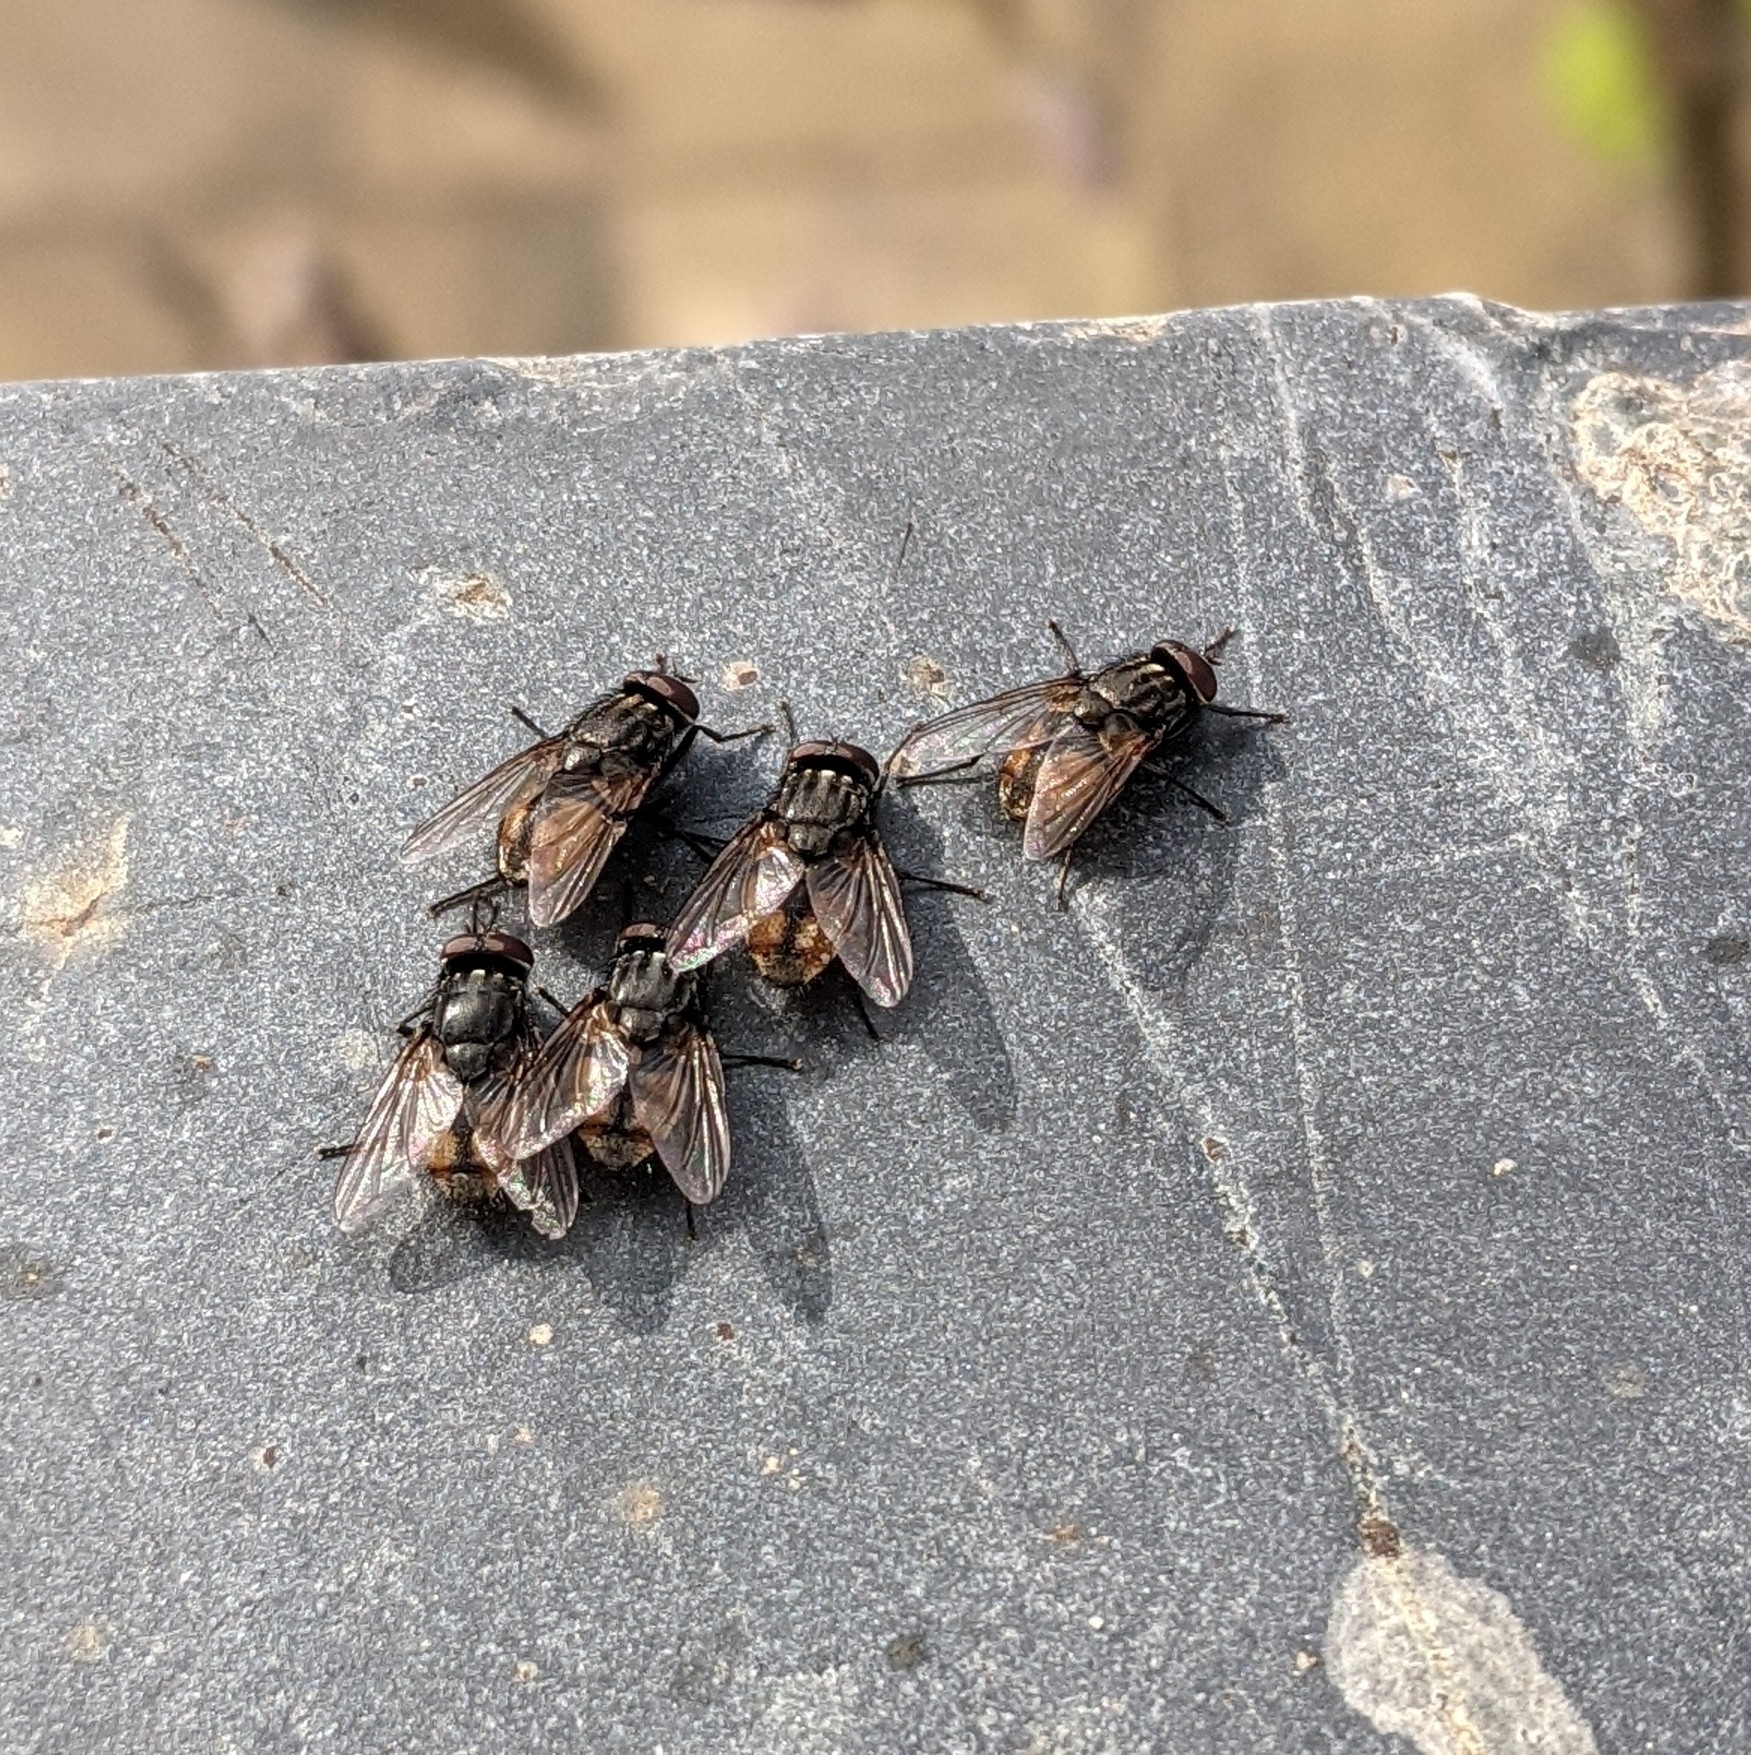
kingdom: Animalia
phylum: Arthropoda
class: Insecta
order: Diptera
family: Muscidae
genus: Musca
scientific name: Musca autumnalis
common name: Face fly
